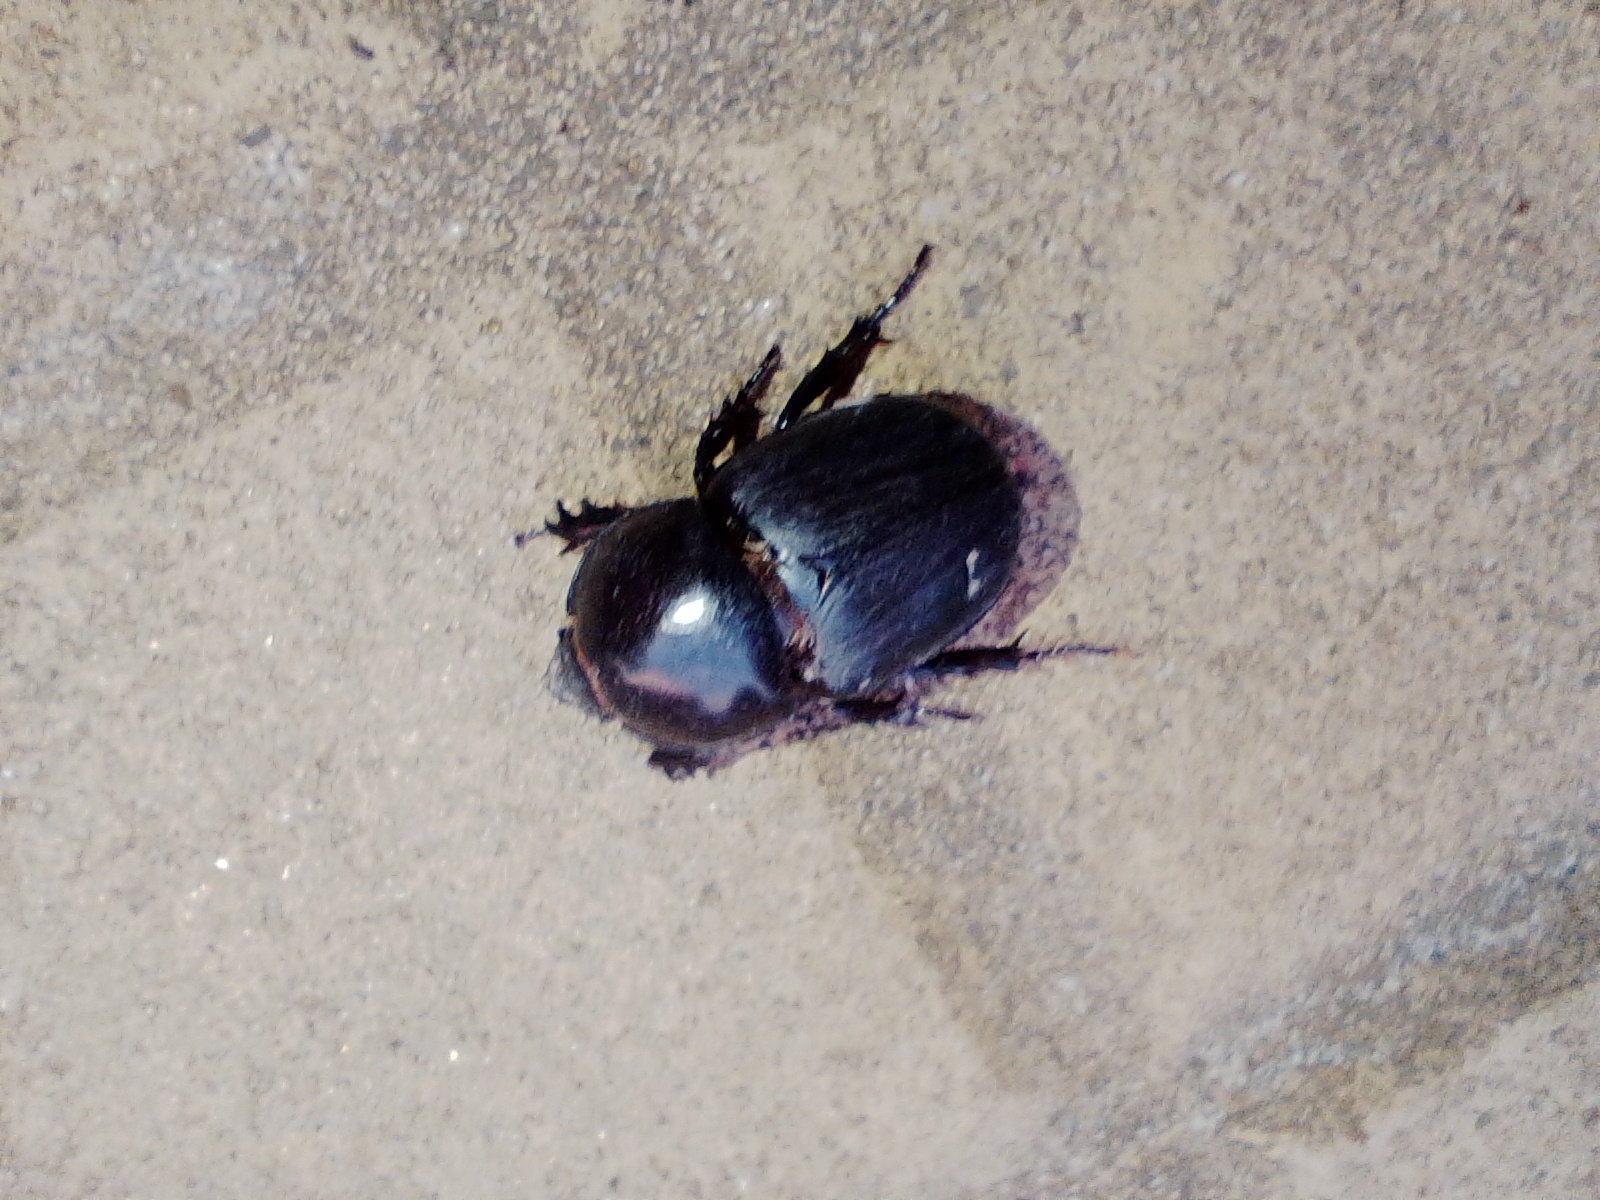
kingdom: Animalia
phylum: Arthropoda
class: Insecta
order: Coleoptera
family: Scarabaeidae
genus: Diloboderus
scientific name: Diloboderus abderus
